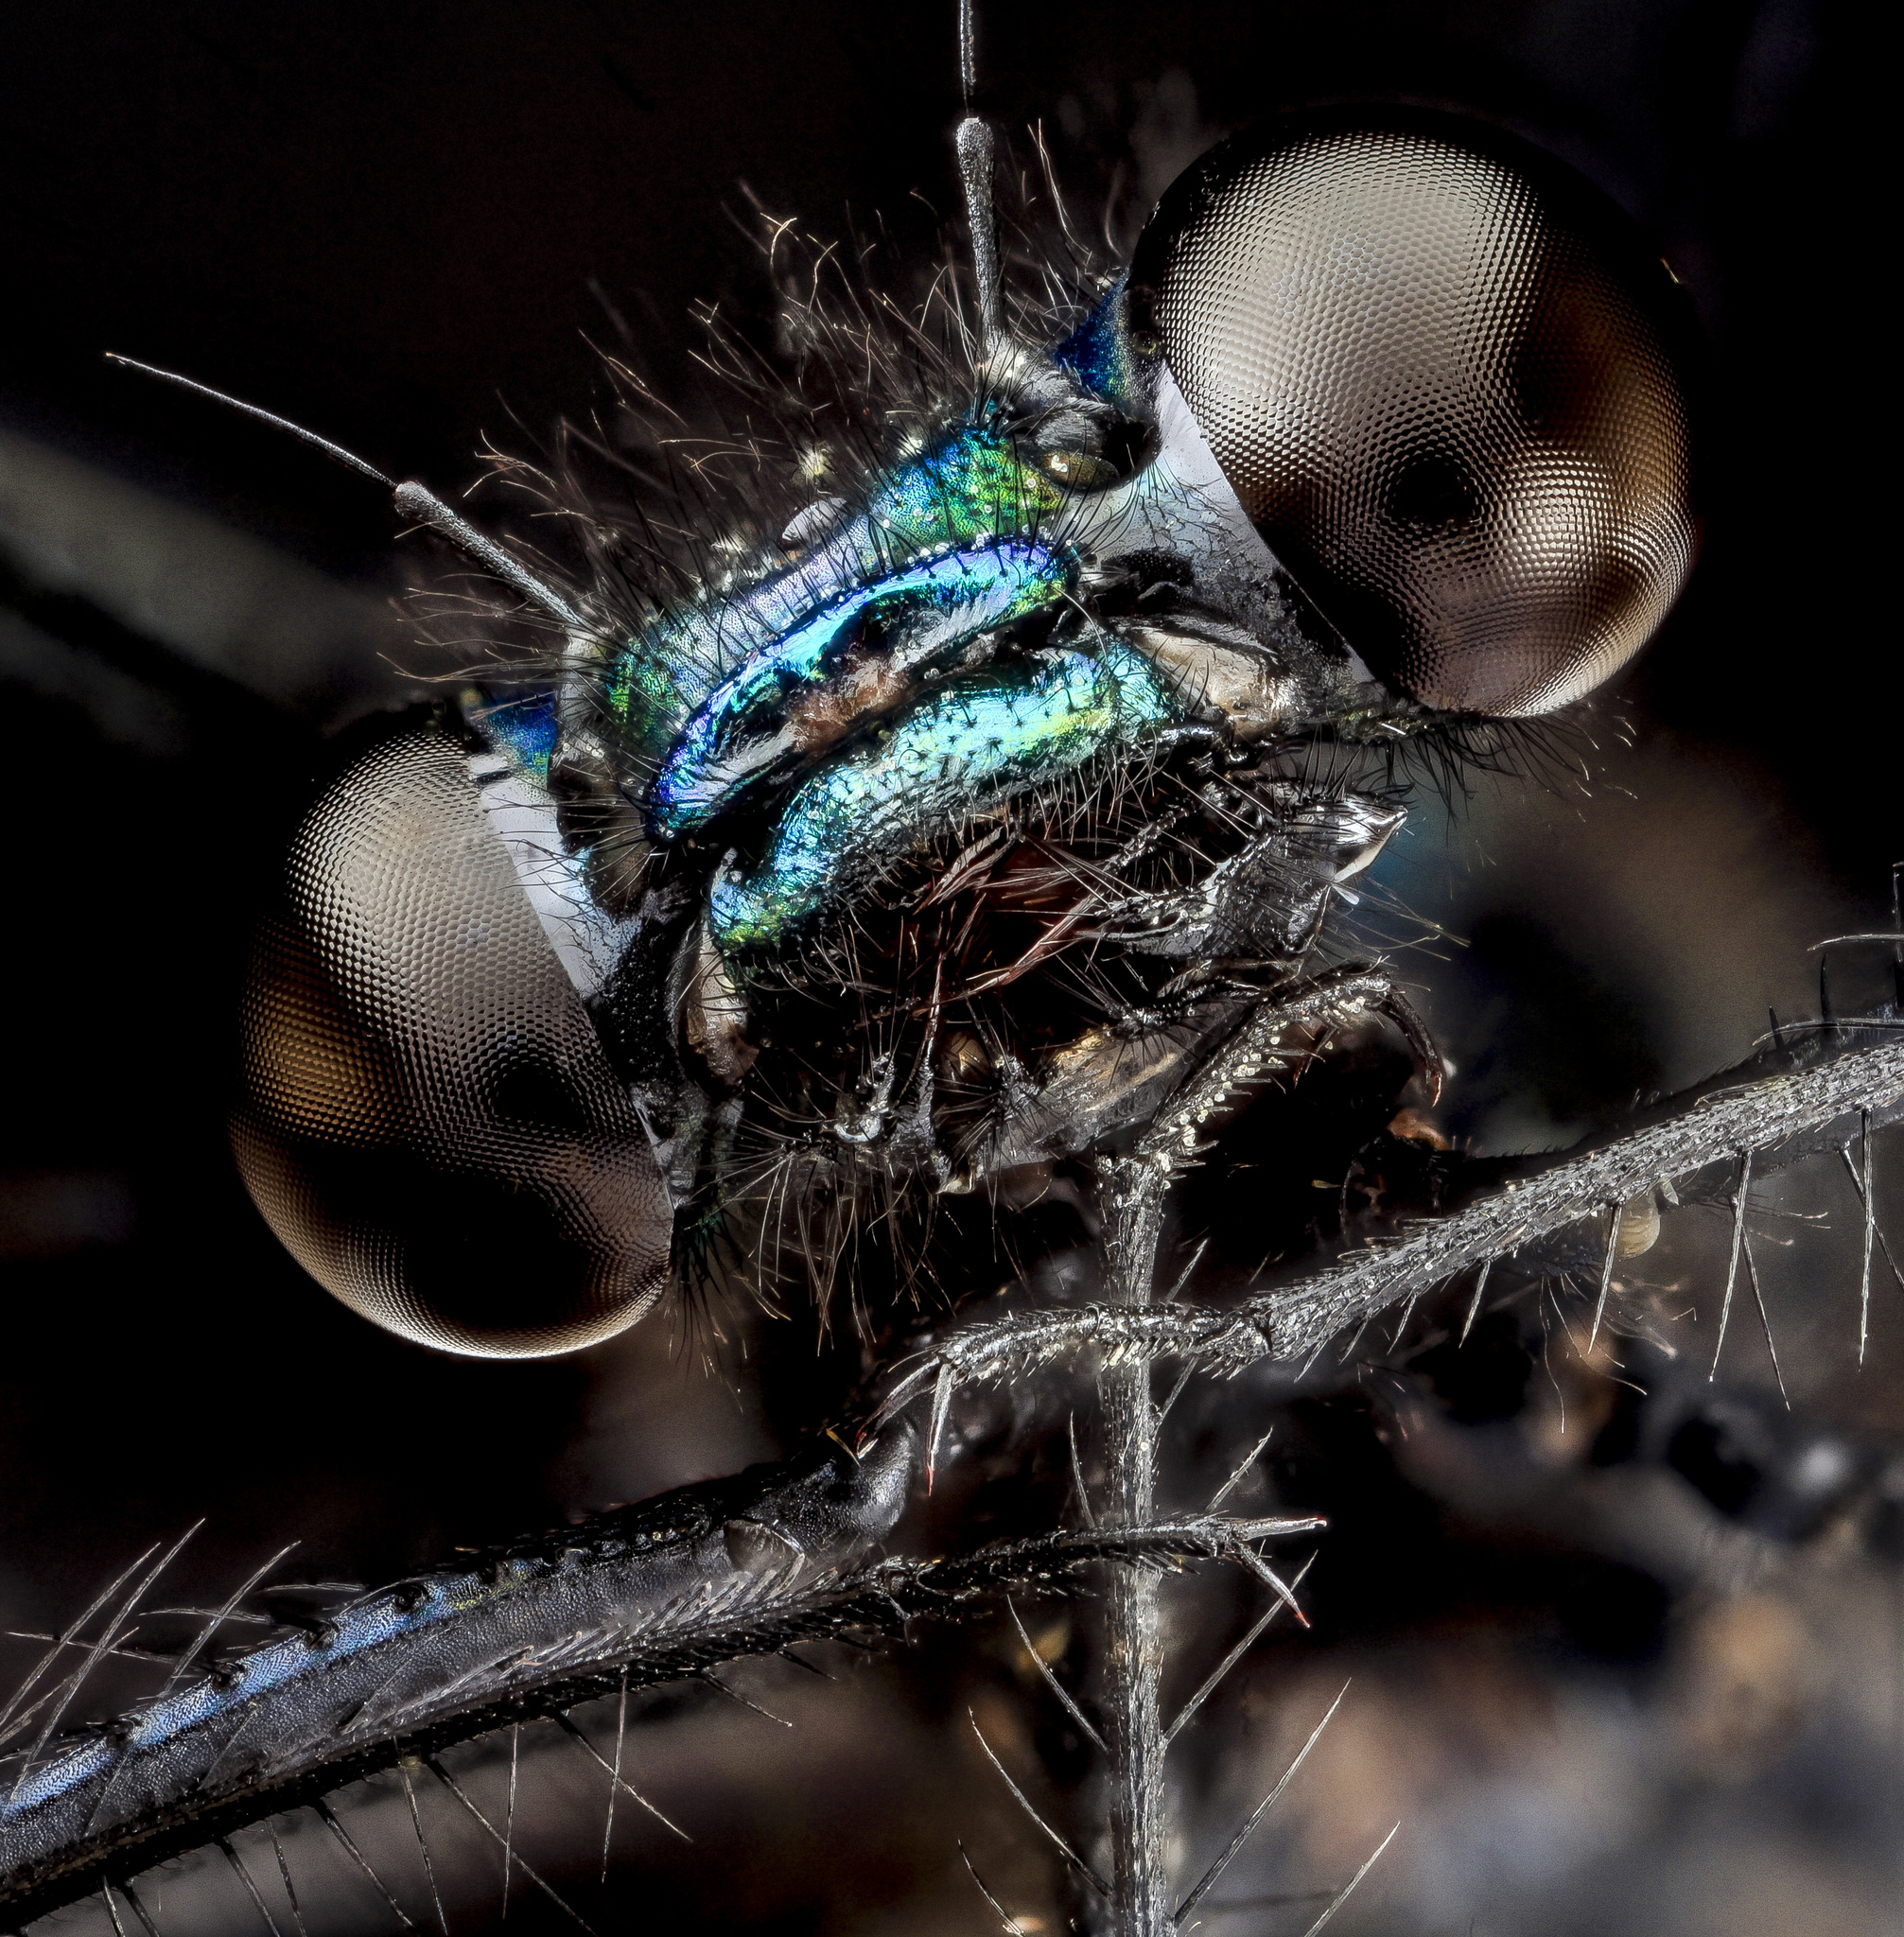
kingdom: Animalia
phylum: Arthropoda
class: Insecta
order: Odonata
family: Calopterygidae
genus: Calopteryx
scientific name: Calopteryx maculata
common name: Ebony jewelwing
